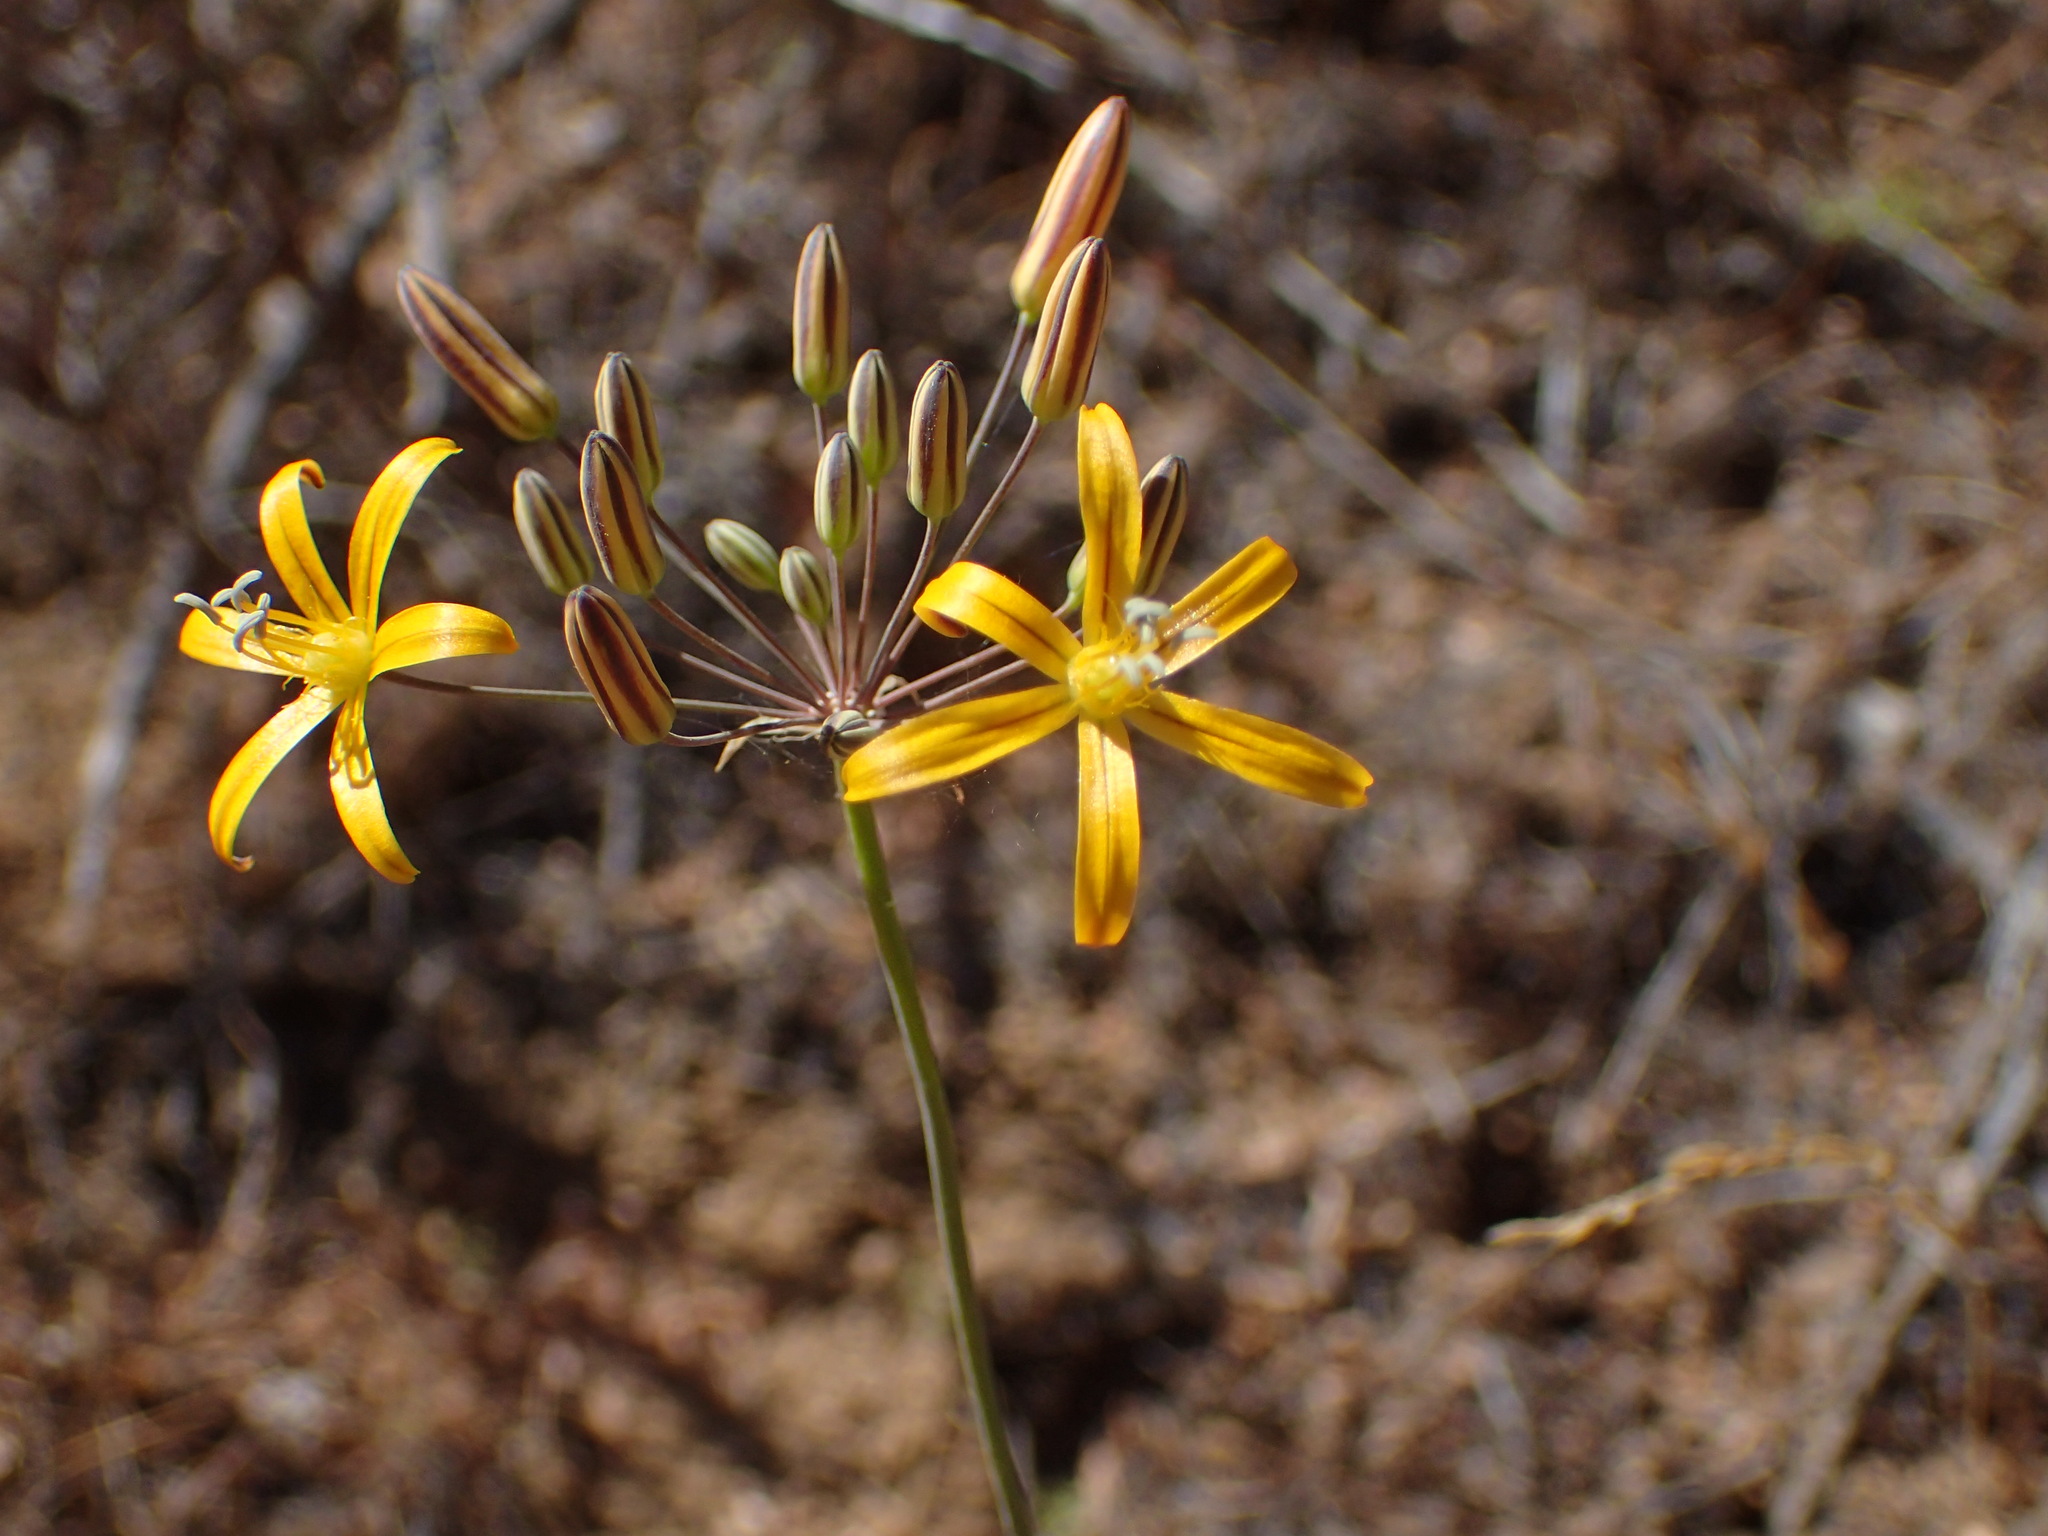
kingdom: Plantae
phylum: Tracheophyta
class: Liliopsida
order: Asparagales
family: Asparagaceae
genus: Bloomeria
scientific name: Bloomeria crocea
